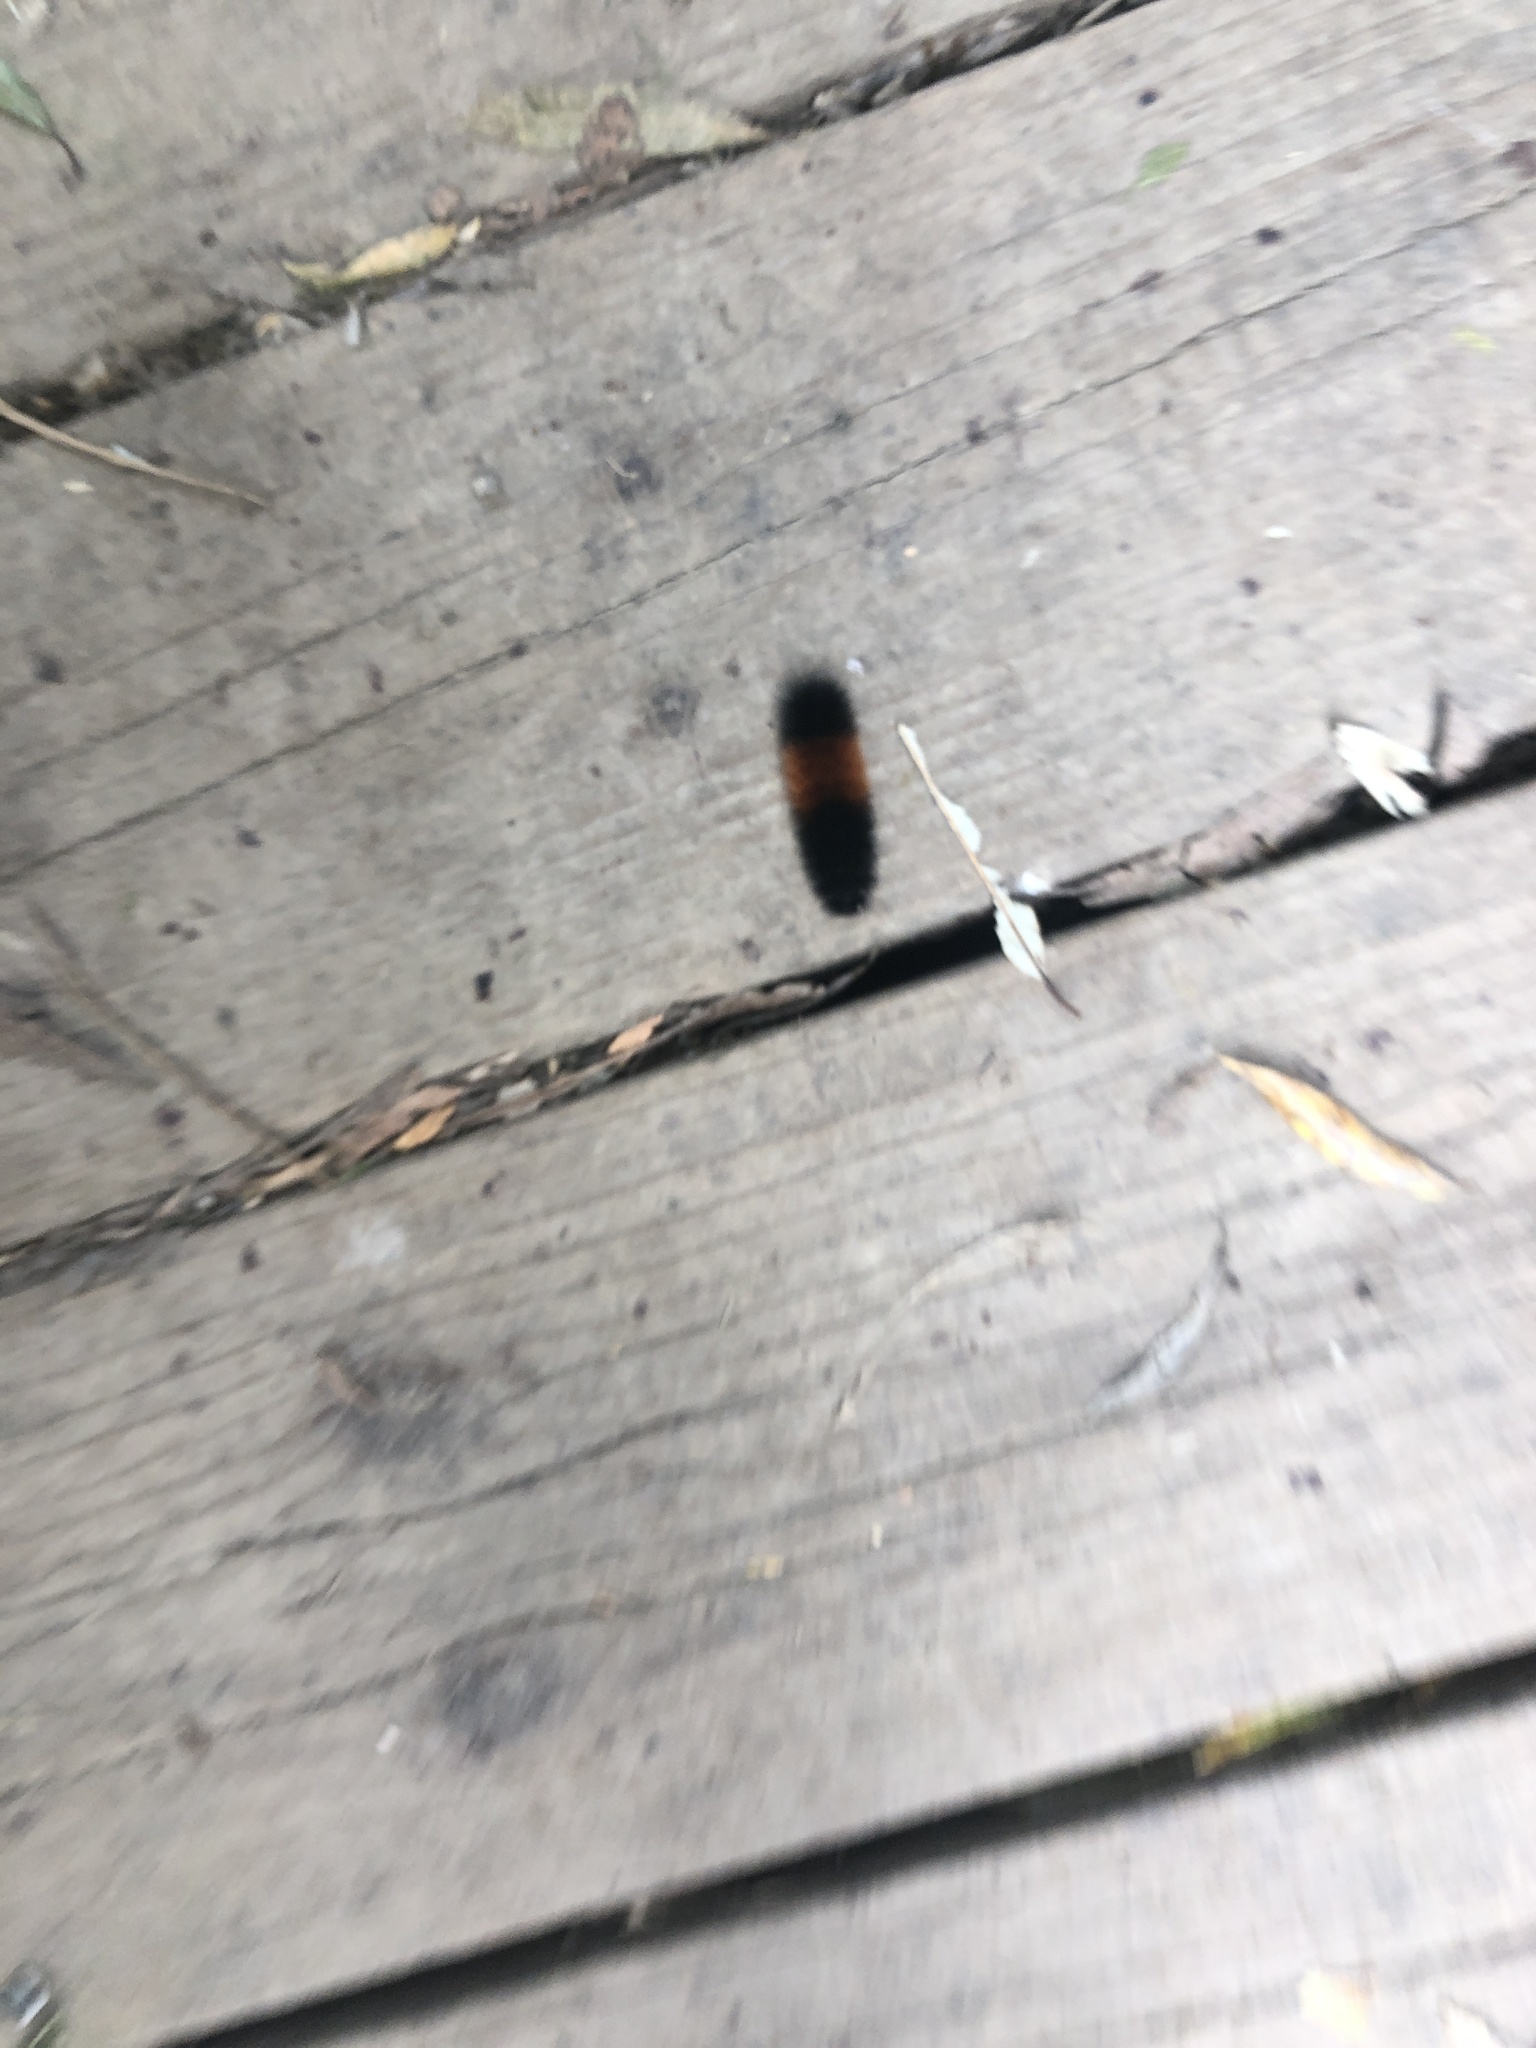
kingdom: Animalia
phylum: Arthropoda
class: Insecta
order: Lepidoptera
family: Erebidae
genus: Pyrrharctia
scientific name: Pyrrharctia isabella
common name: Isabella tiger moth
